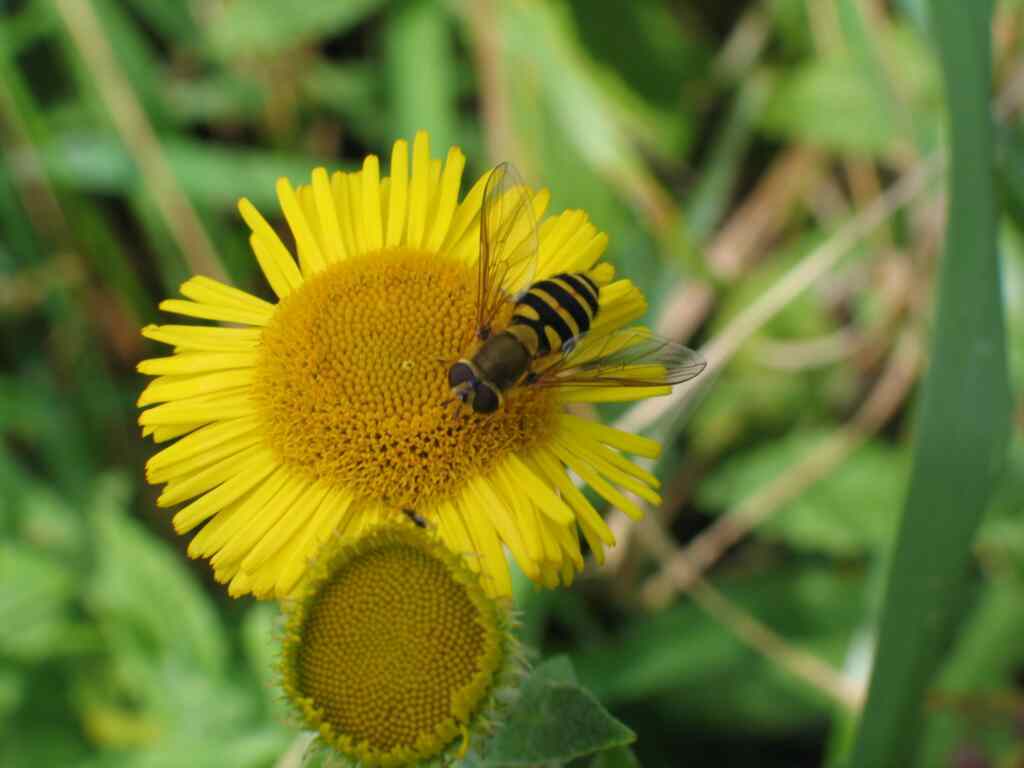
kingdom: Animalia
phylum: Arthropoda
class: Insecta
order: Diptera
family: Syrphidae
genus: Syrphus
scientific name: Syrphus
